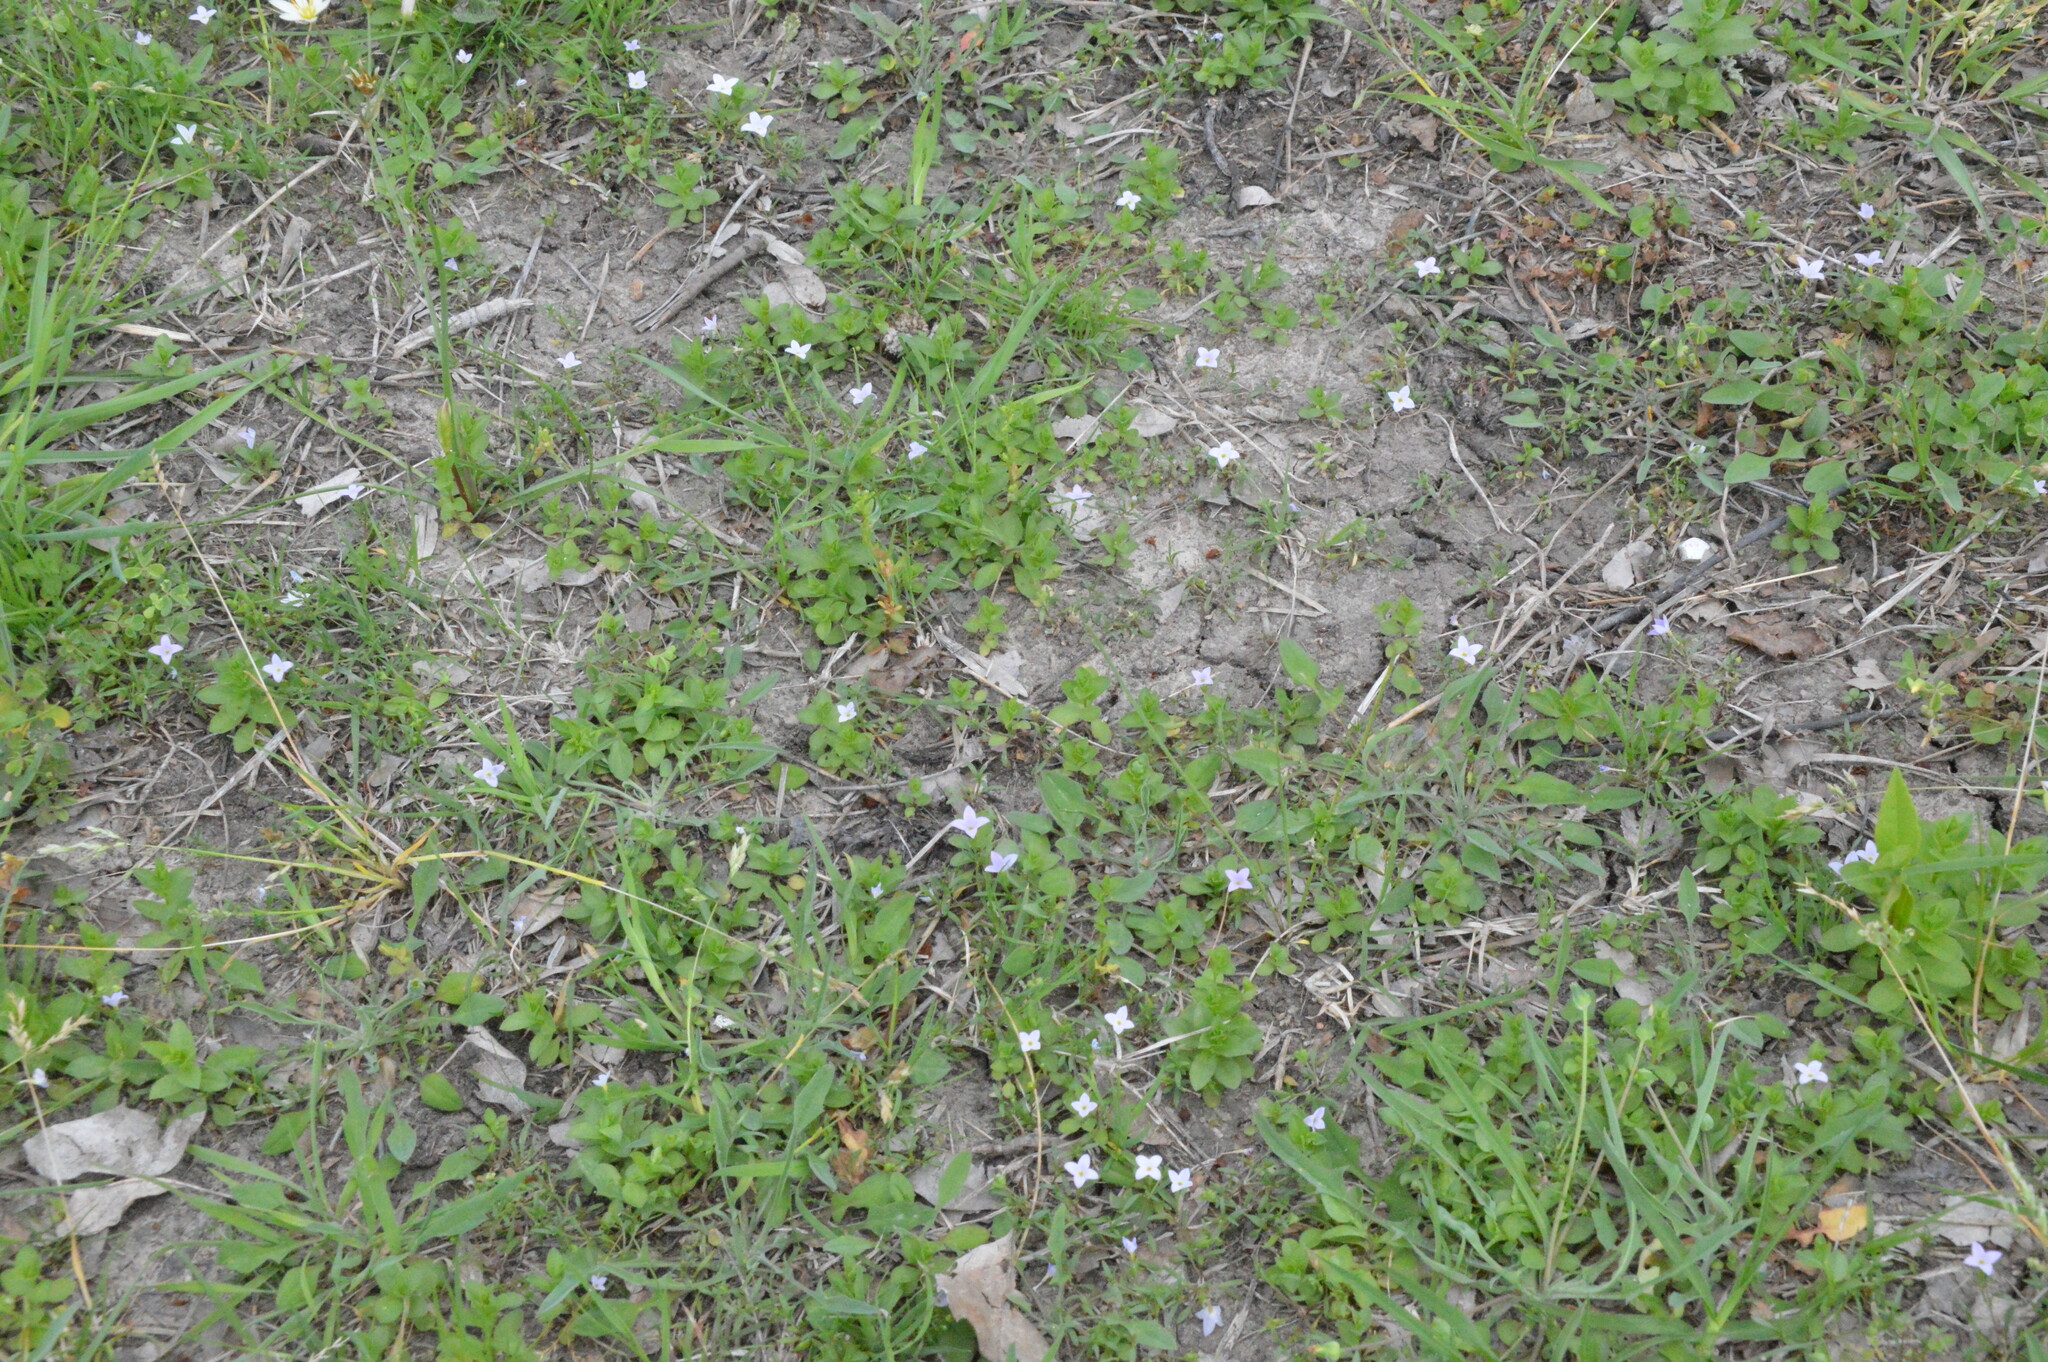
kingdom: Plantae
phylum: Tracheophyta
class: Magnoliopsida
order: Gentianales
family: Rubiaceae
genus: Houstonia
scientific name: Houstonia rosea
